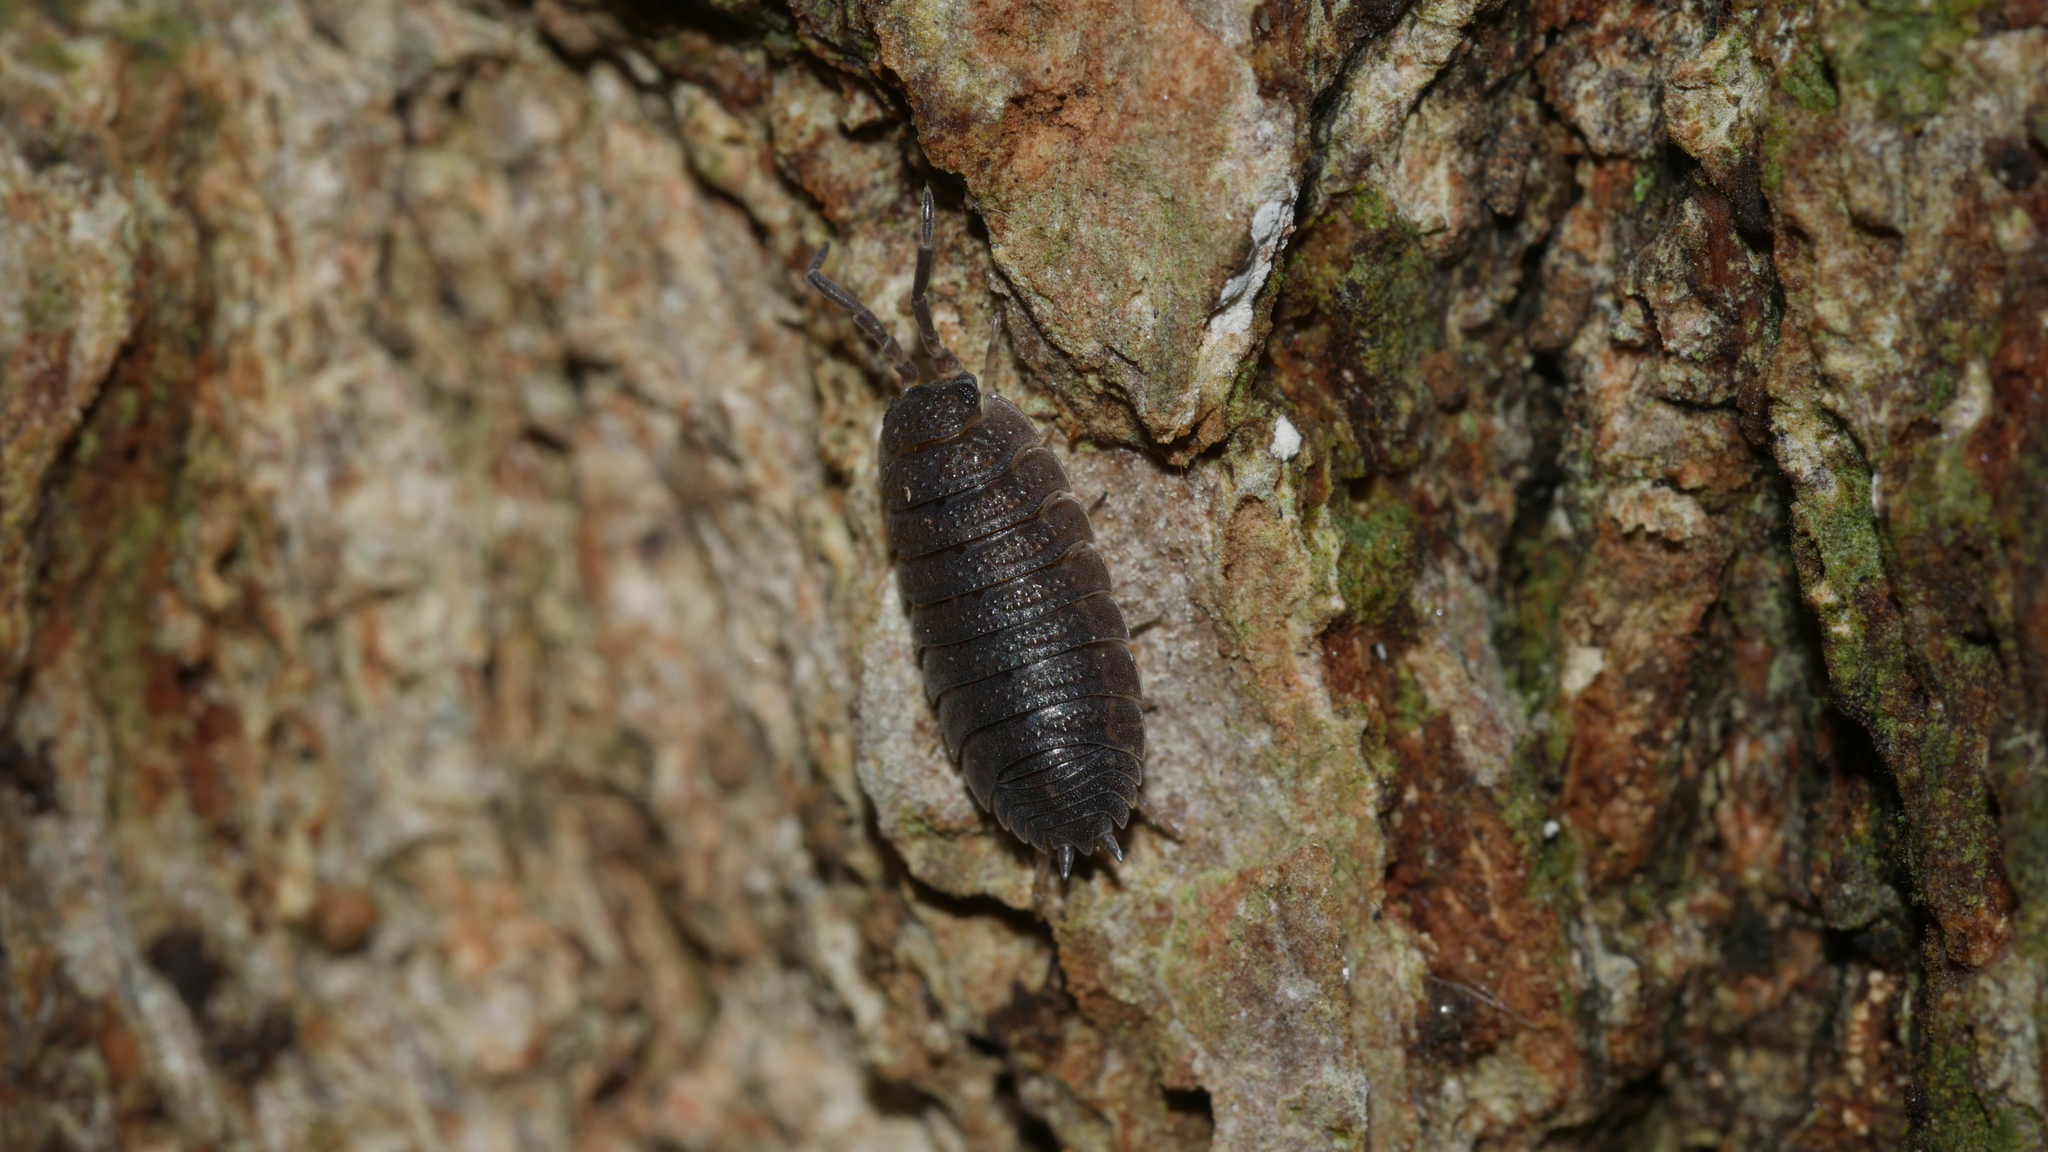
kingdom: Animalia
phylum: Arthropoda
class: Malacostraca
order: Isopoda
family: Porcellionidae
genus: Porcellio
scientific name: Porcellio scaber
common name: Common rough woodlouse
